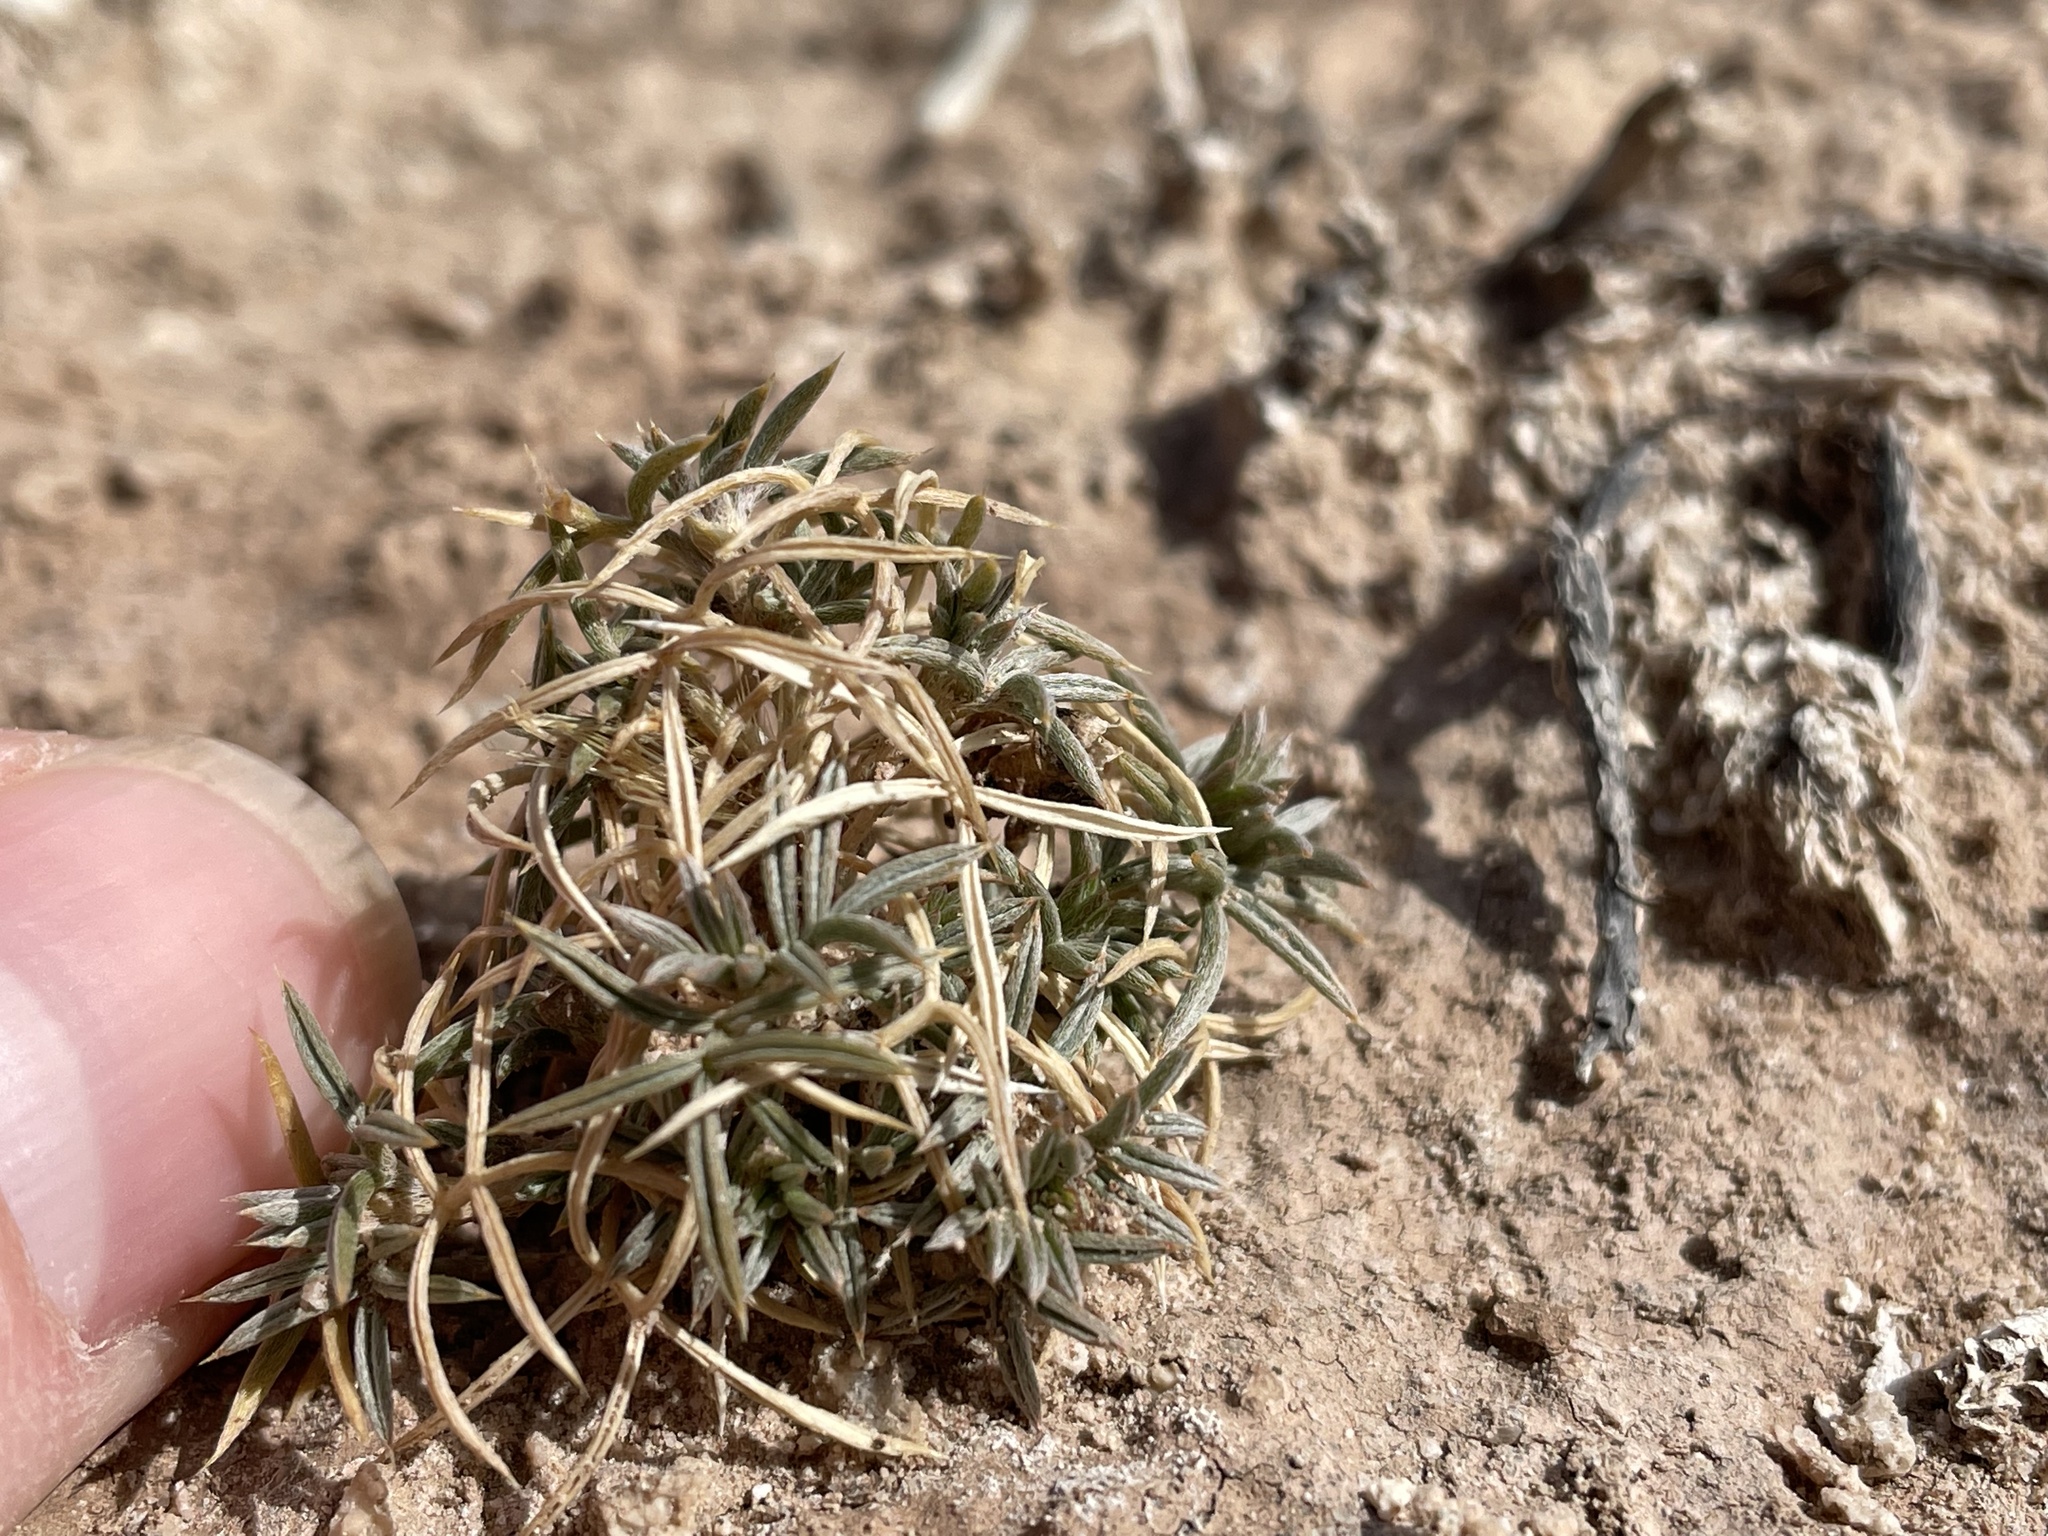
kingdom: Plantae
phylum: Tracheophyta
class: Magnoliopsida
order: Fabales
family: Fabaceae
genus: Astragalus
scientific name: Astragalus kentrophyta
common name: Prickly milk-vetch
